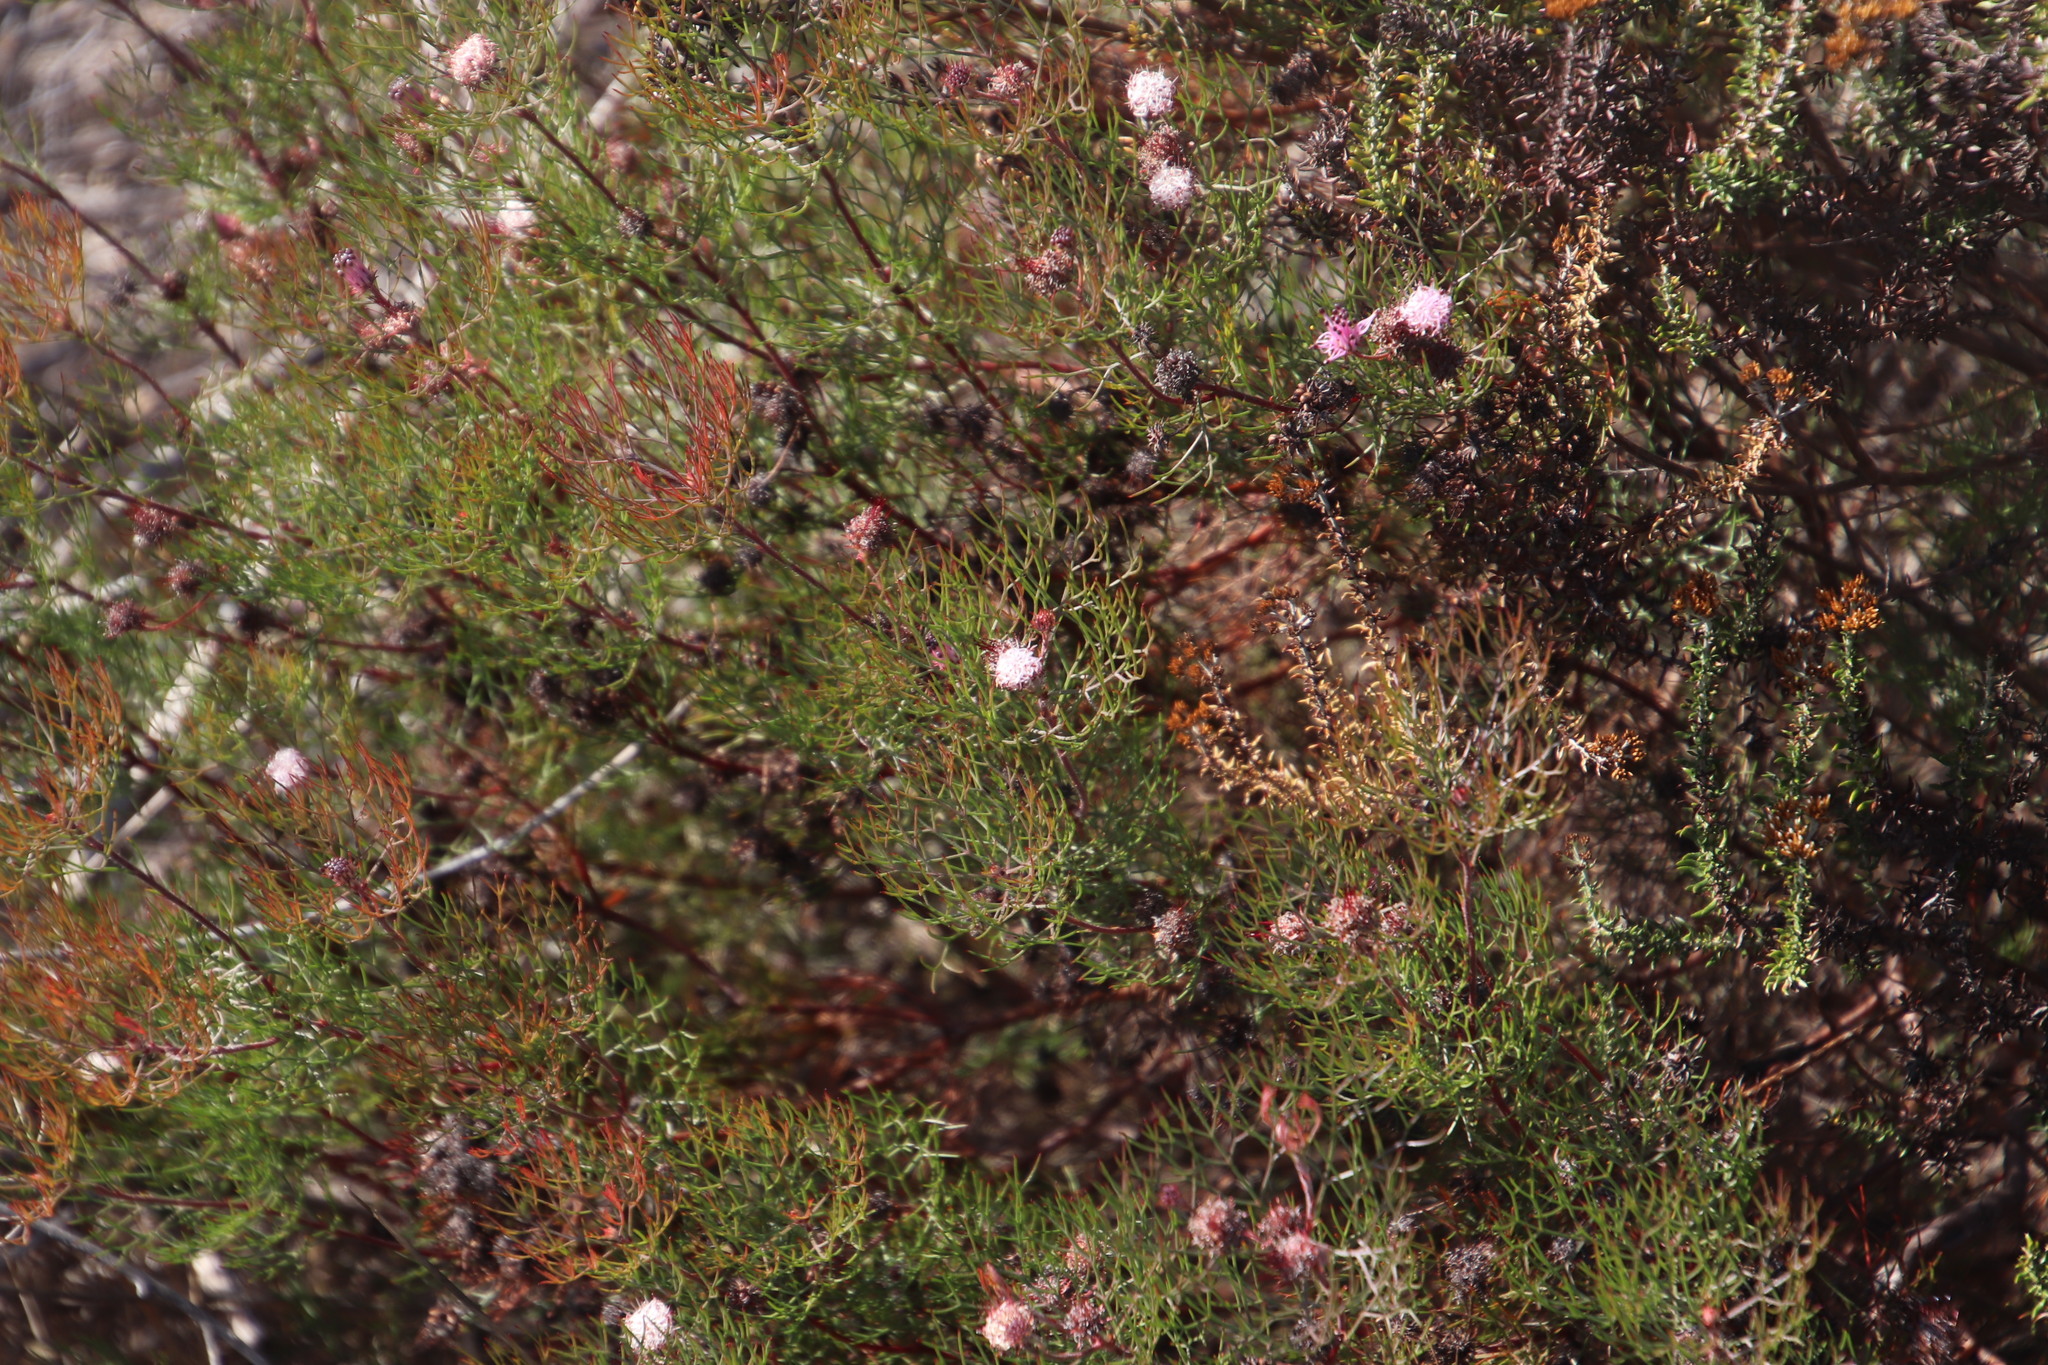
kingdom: Plantae
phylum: Tracheophyta
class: Magnoliopsida
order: Proteales
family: Proteaceae
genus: Serruria
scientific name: Serruria fasciflora
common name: Common pin spiderhead
